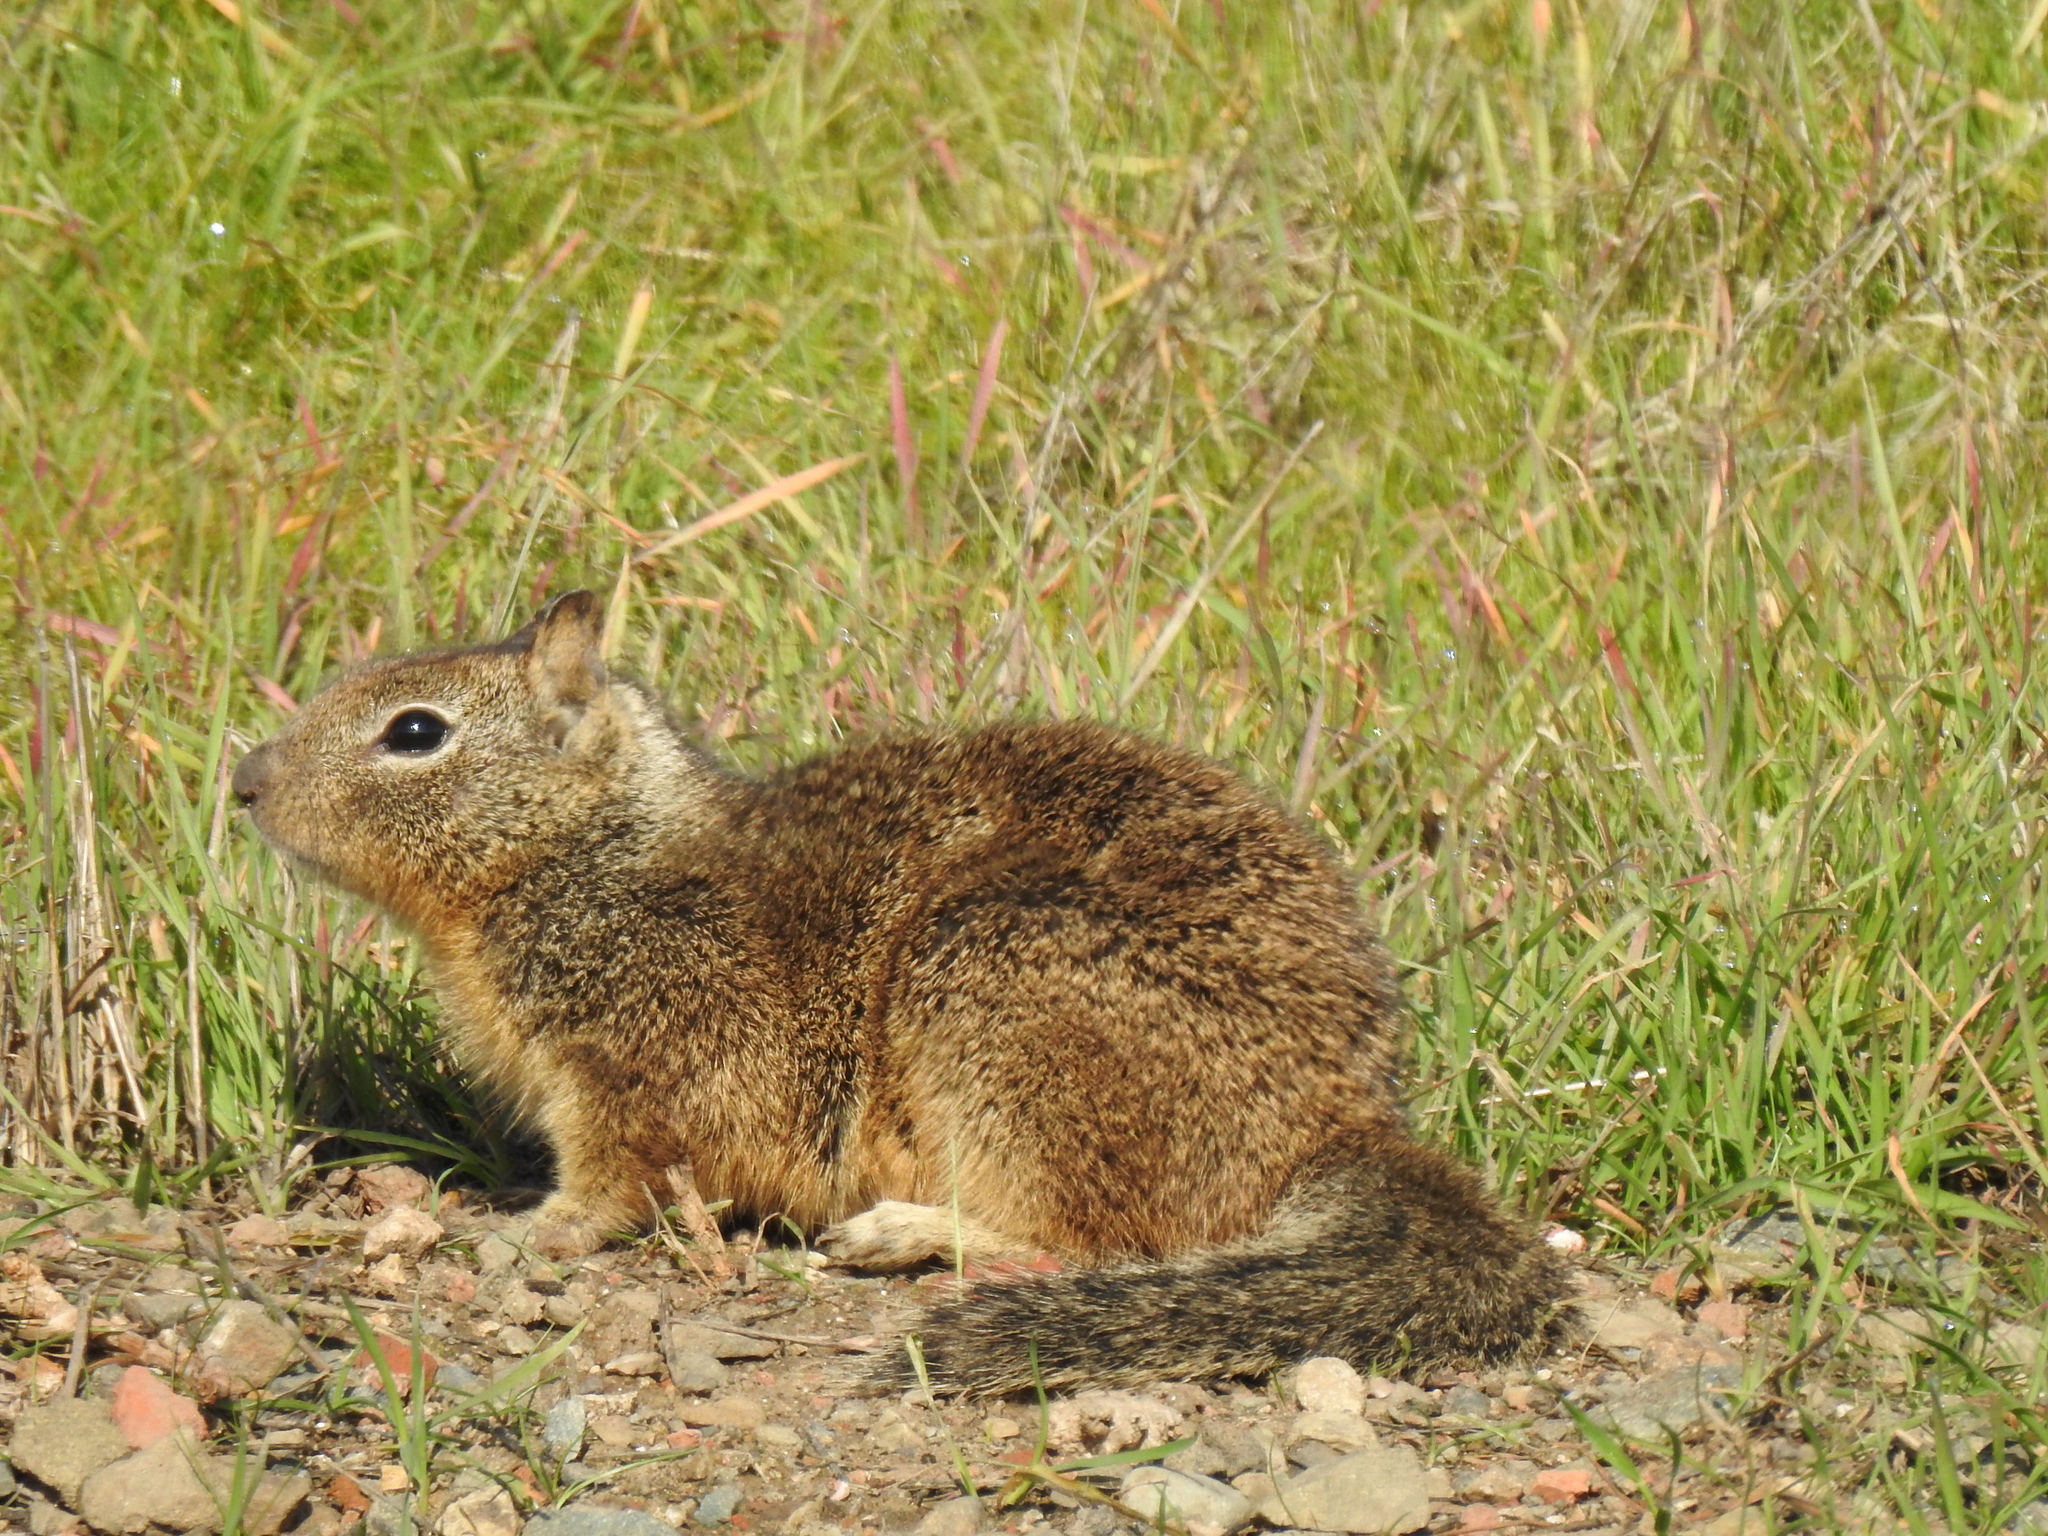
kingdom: Animalia
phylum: Chordata
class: Mammalia
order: Rodentia
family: Sciuridae
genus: Otospermophilus
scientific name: Otospermophilus beecheyi
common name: California ground squirrel
